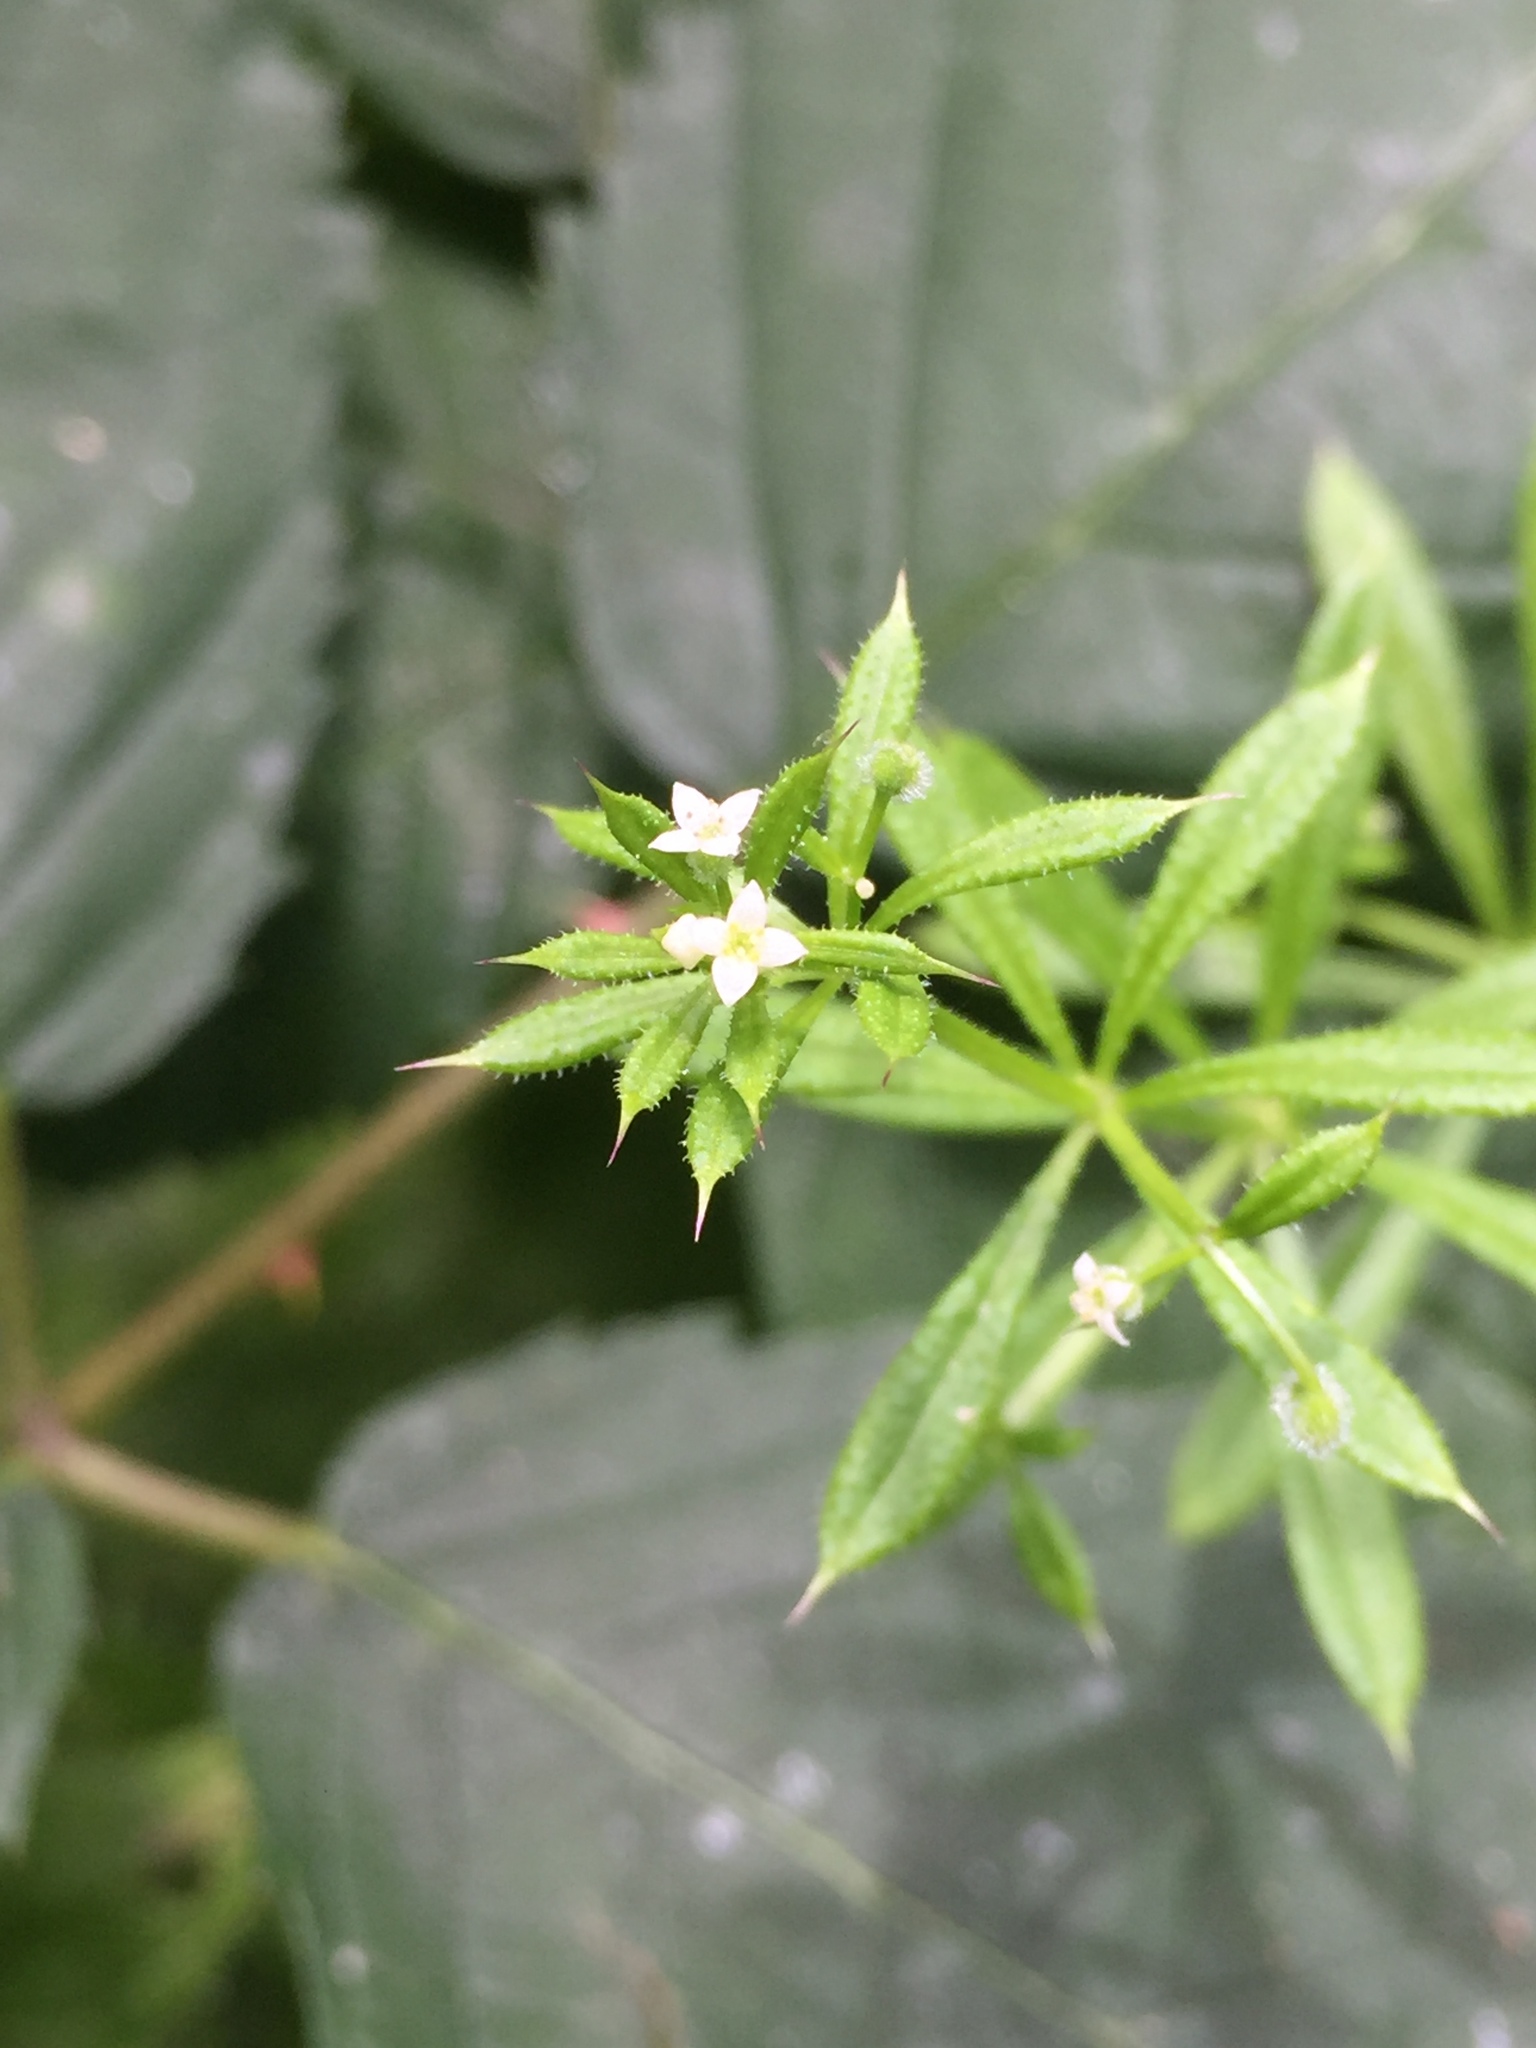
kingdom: Plantae
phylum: Tracheophyta
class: Magnoliopsida
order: Gentianales
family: Rubiaceae
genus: Galium
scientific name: Galium aparine
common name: Cleavers
